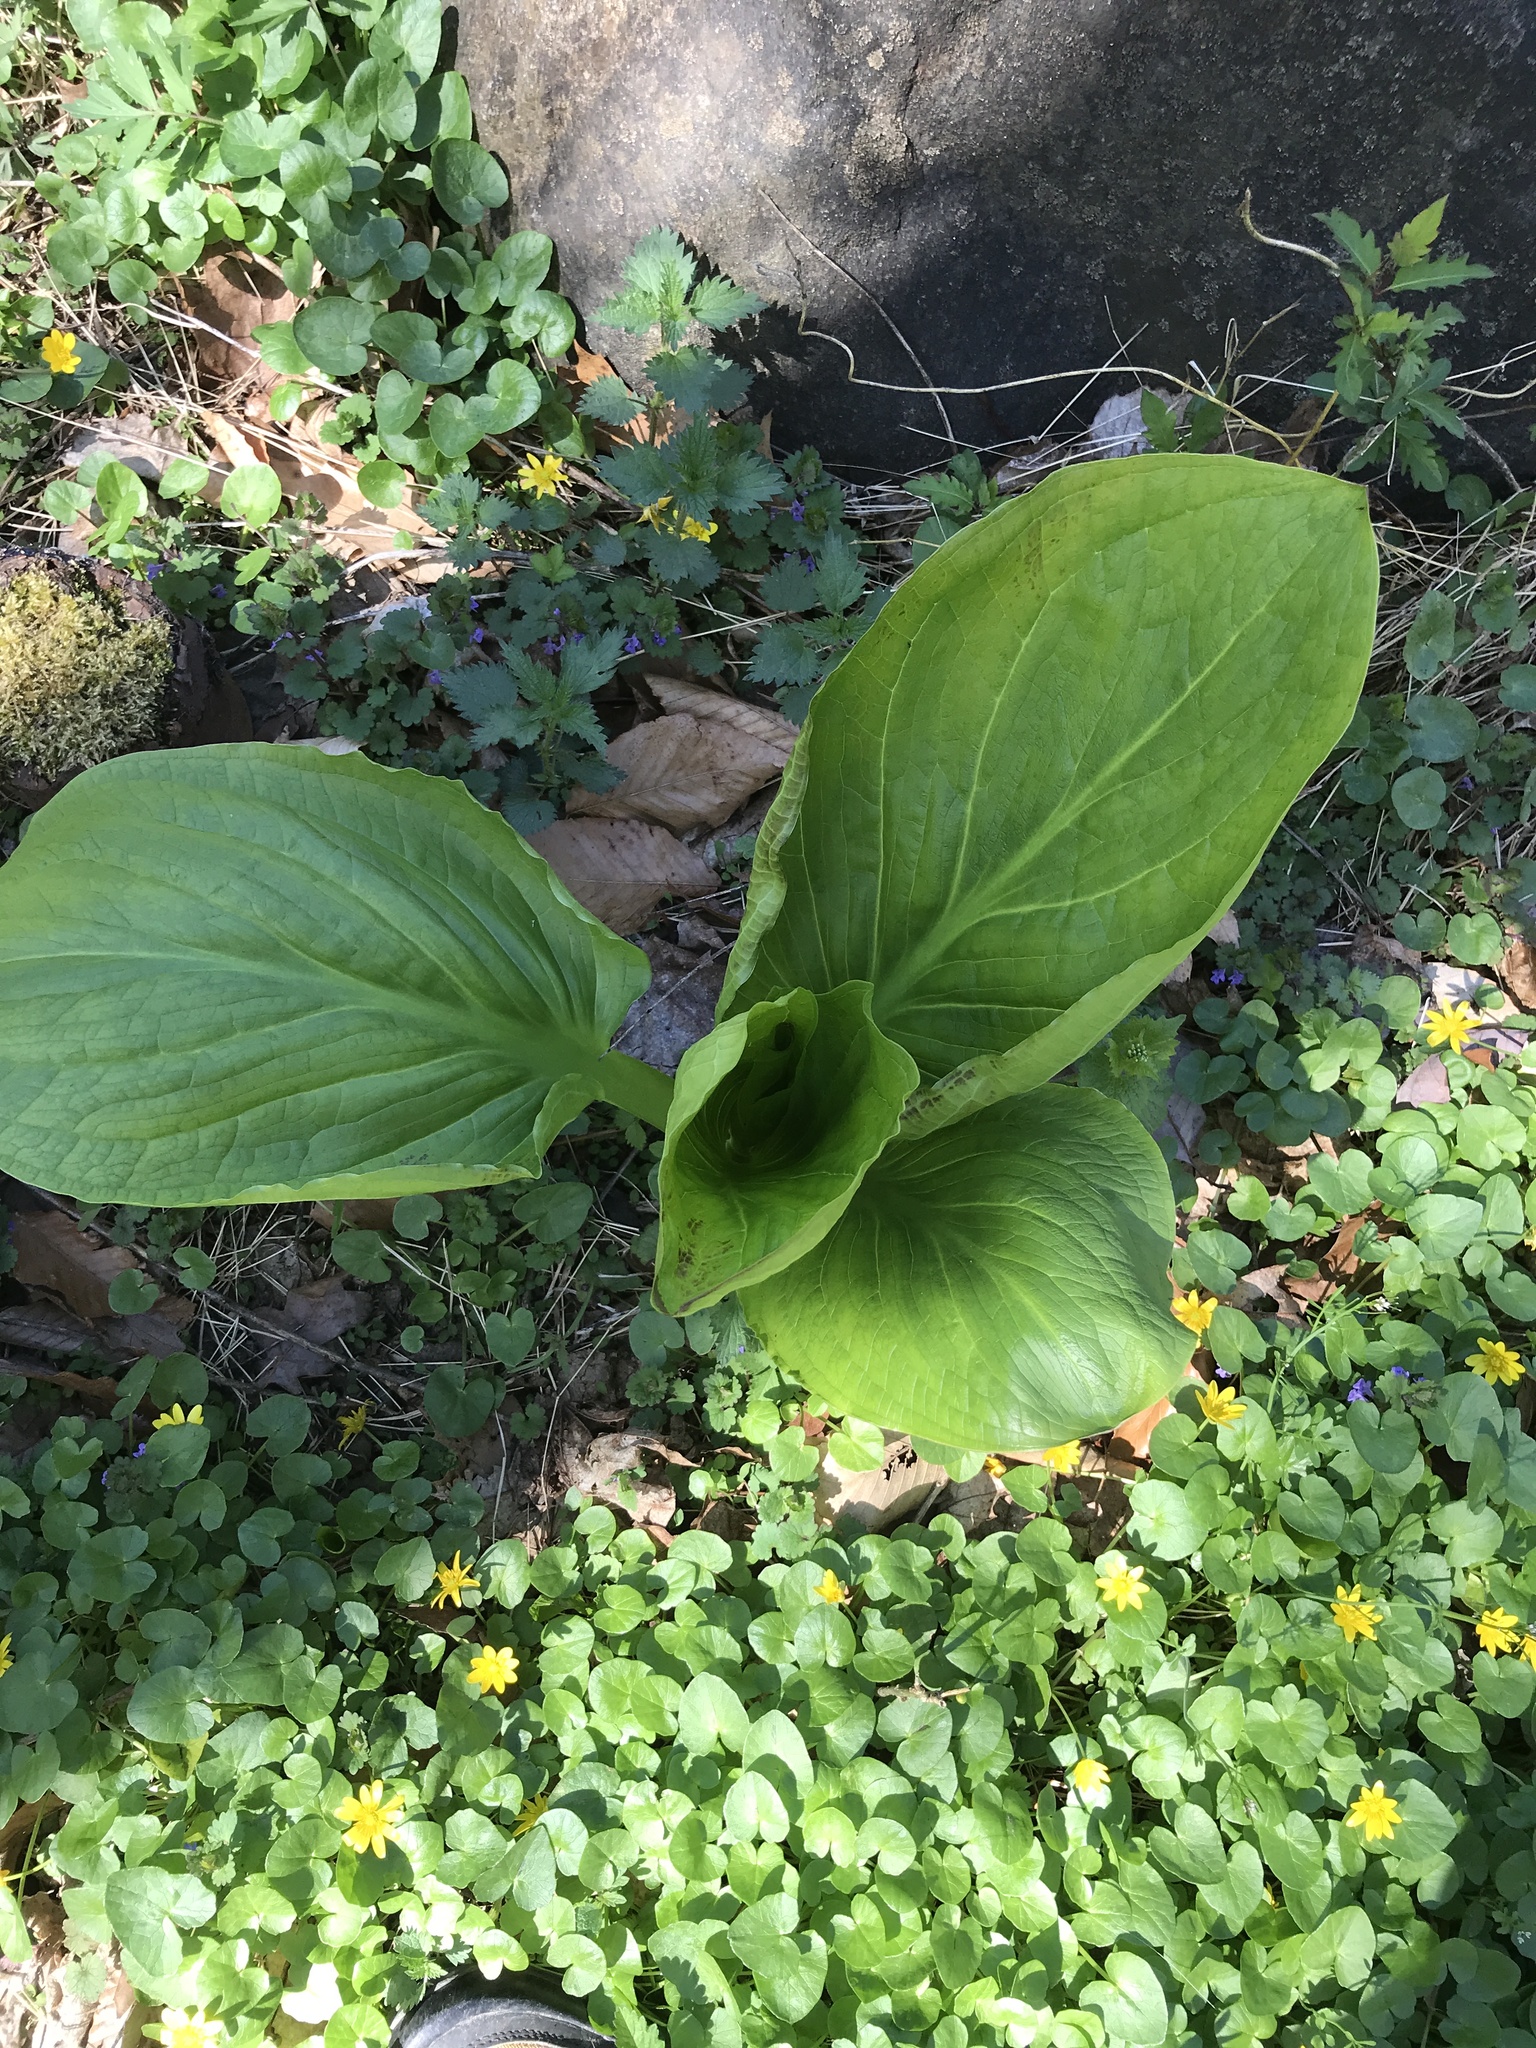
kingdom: Plantae
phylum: Tracheophyta
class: Liliopsida
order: Alismatales
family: Araceae
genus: Symplocarpus
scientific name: Symplocarpus foetidus
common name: Eastern skunk cabbage
